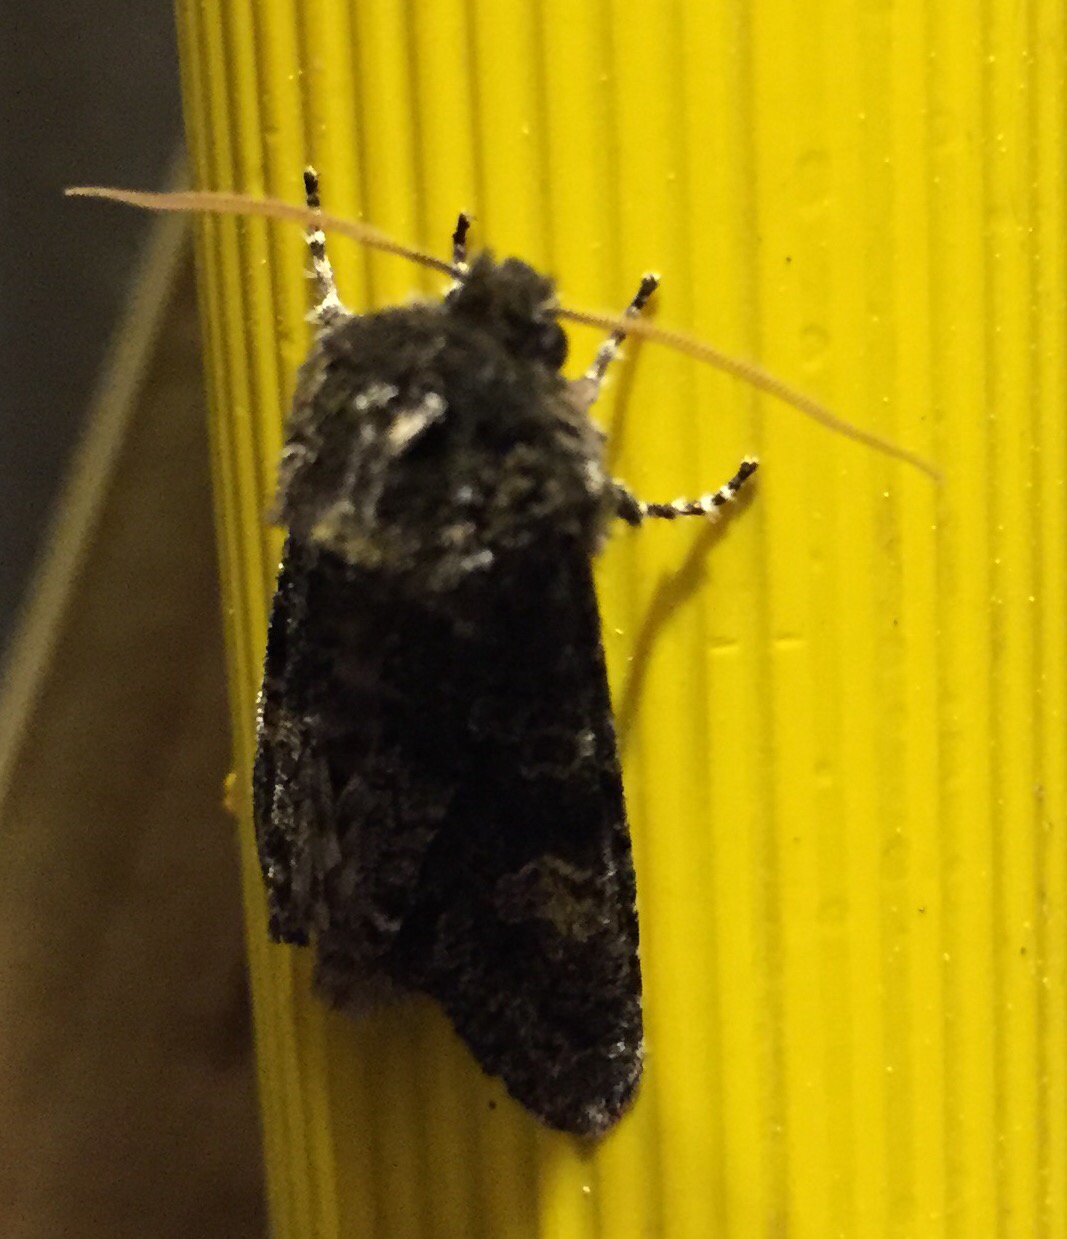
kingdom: Animalia
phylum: Arthropoda
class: Insecta
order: Lepidoptera
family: Noctuidae
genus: Psaphida
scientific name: Psaphida grotei
